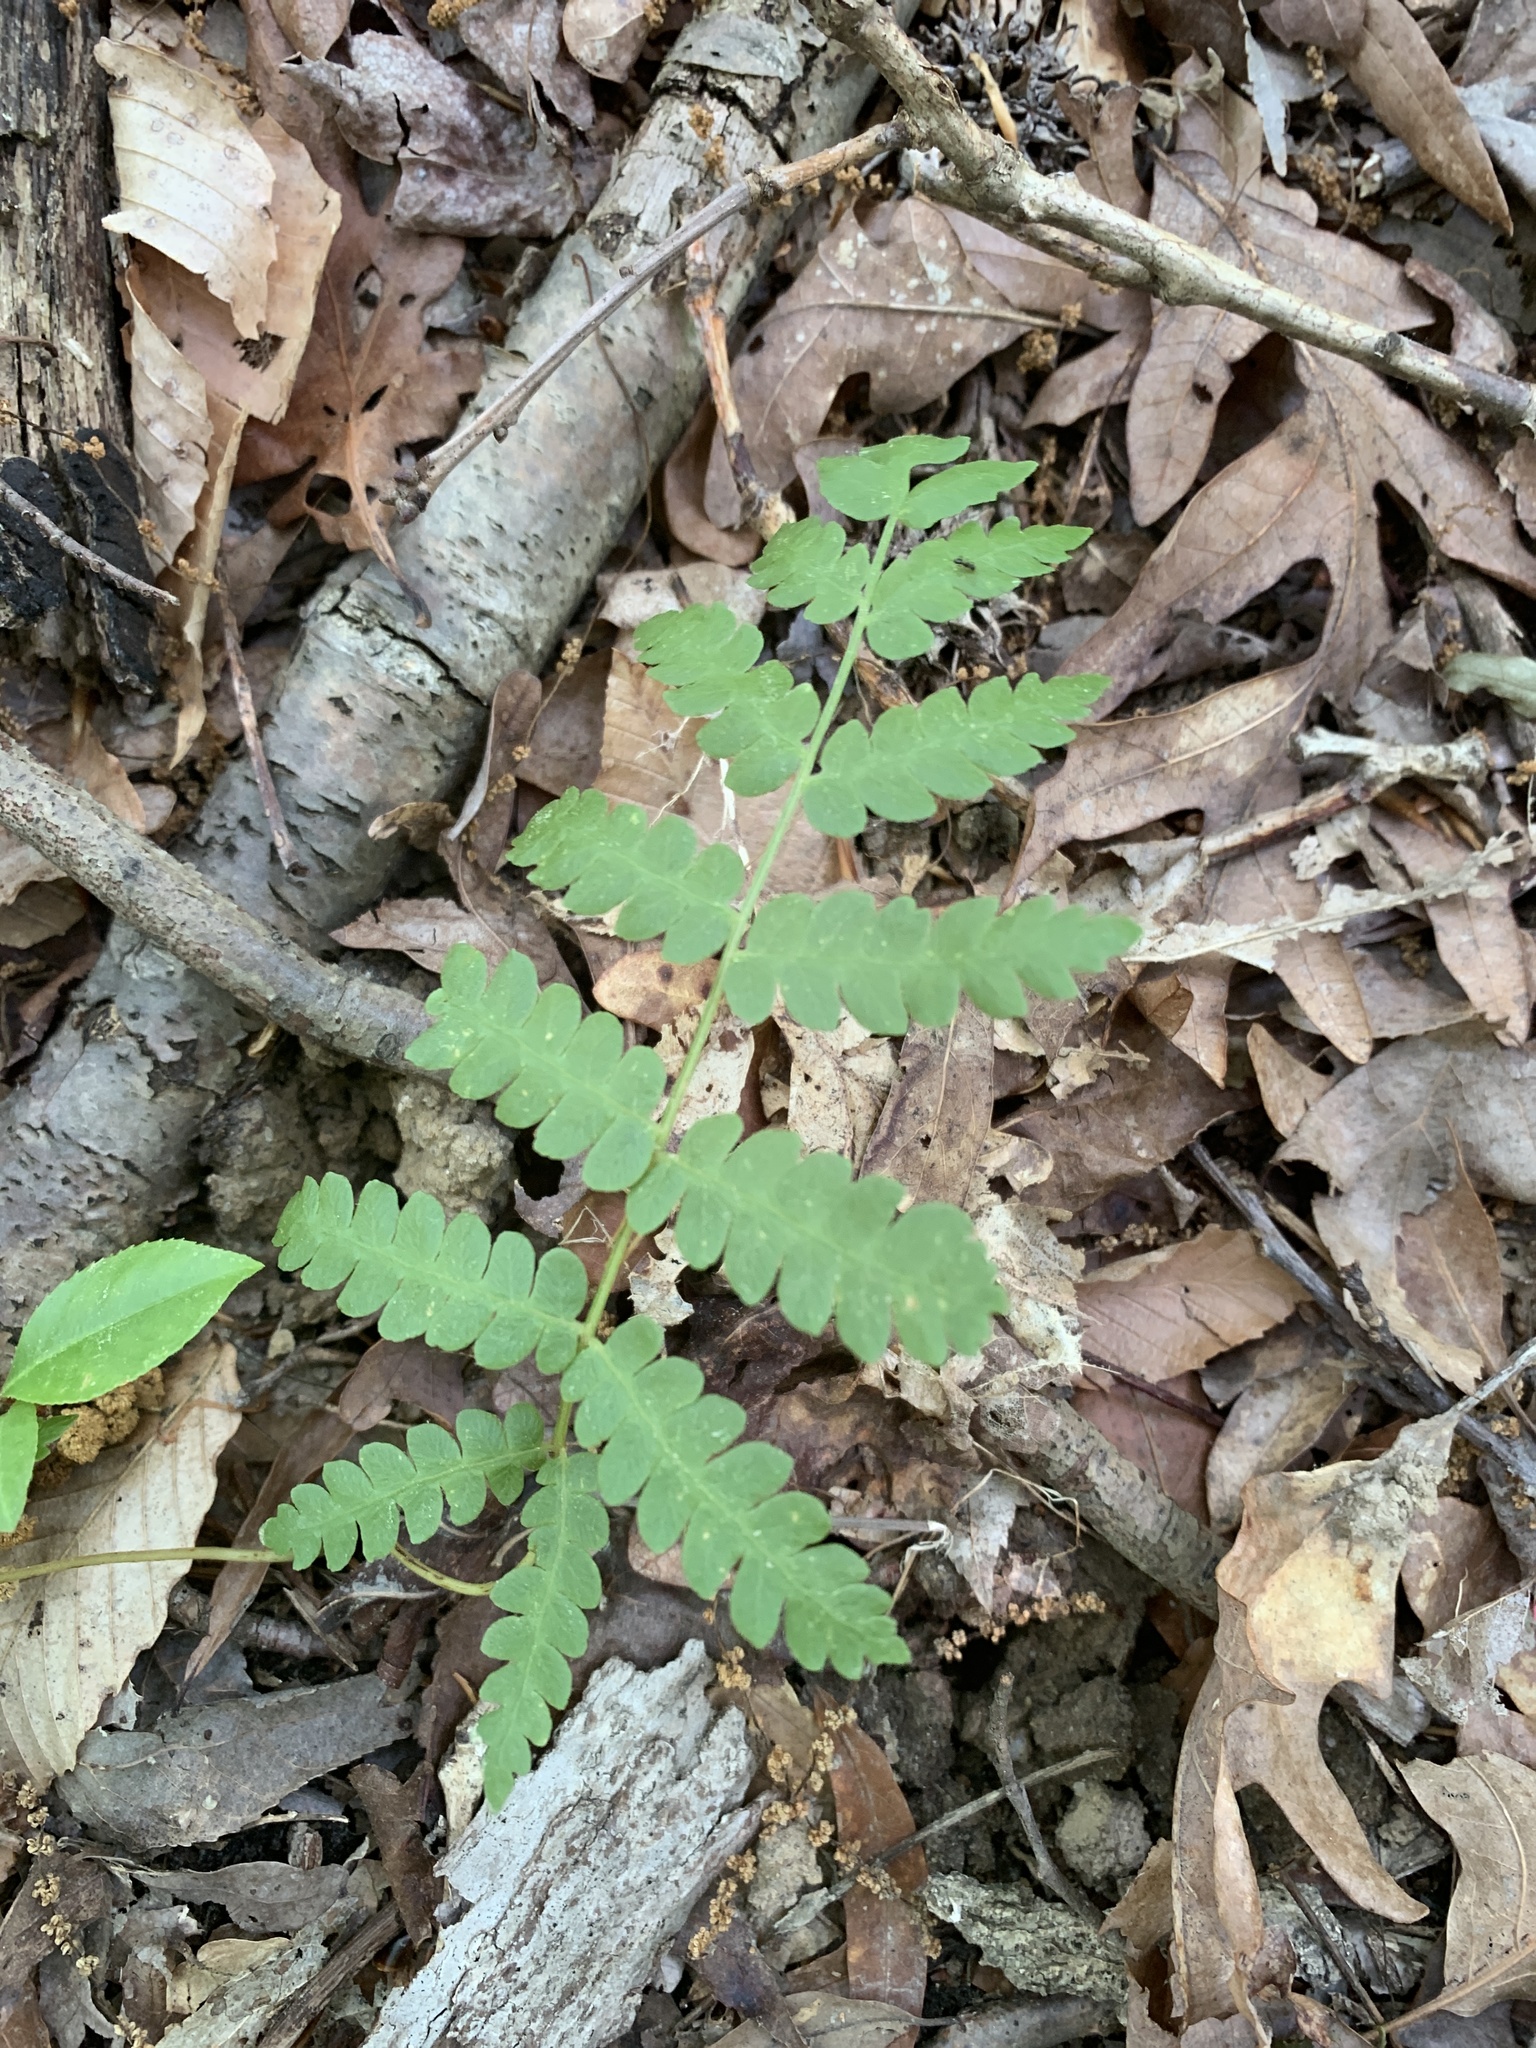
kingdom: Plantae
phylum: Tracheophyta
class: Polypodiopsida
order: Osmundales
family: Osmundaceae
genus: Claytosmunda
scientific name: Claytosmunda claytoniana
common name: Clayton's fern
